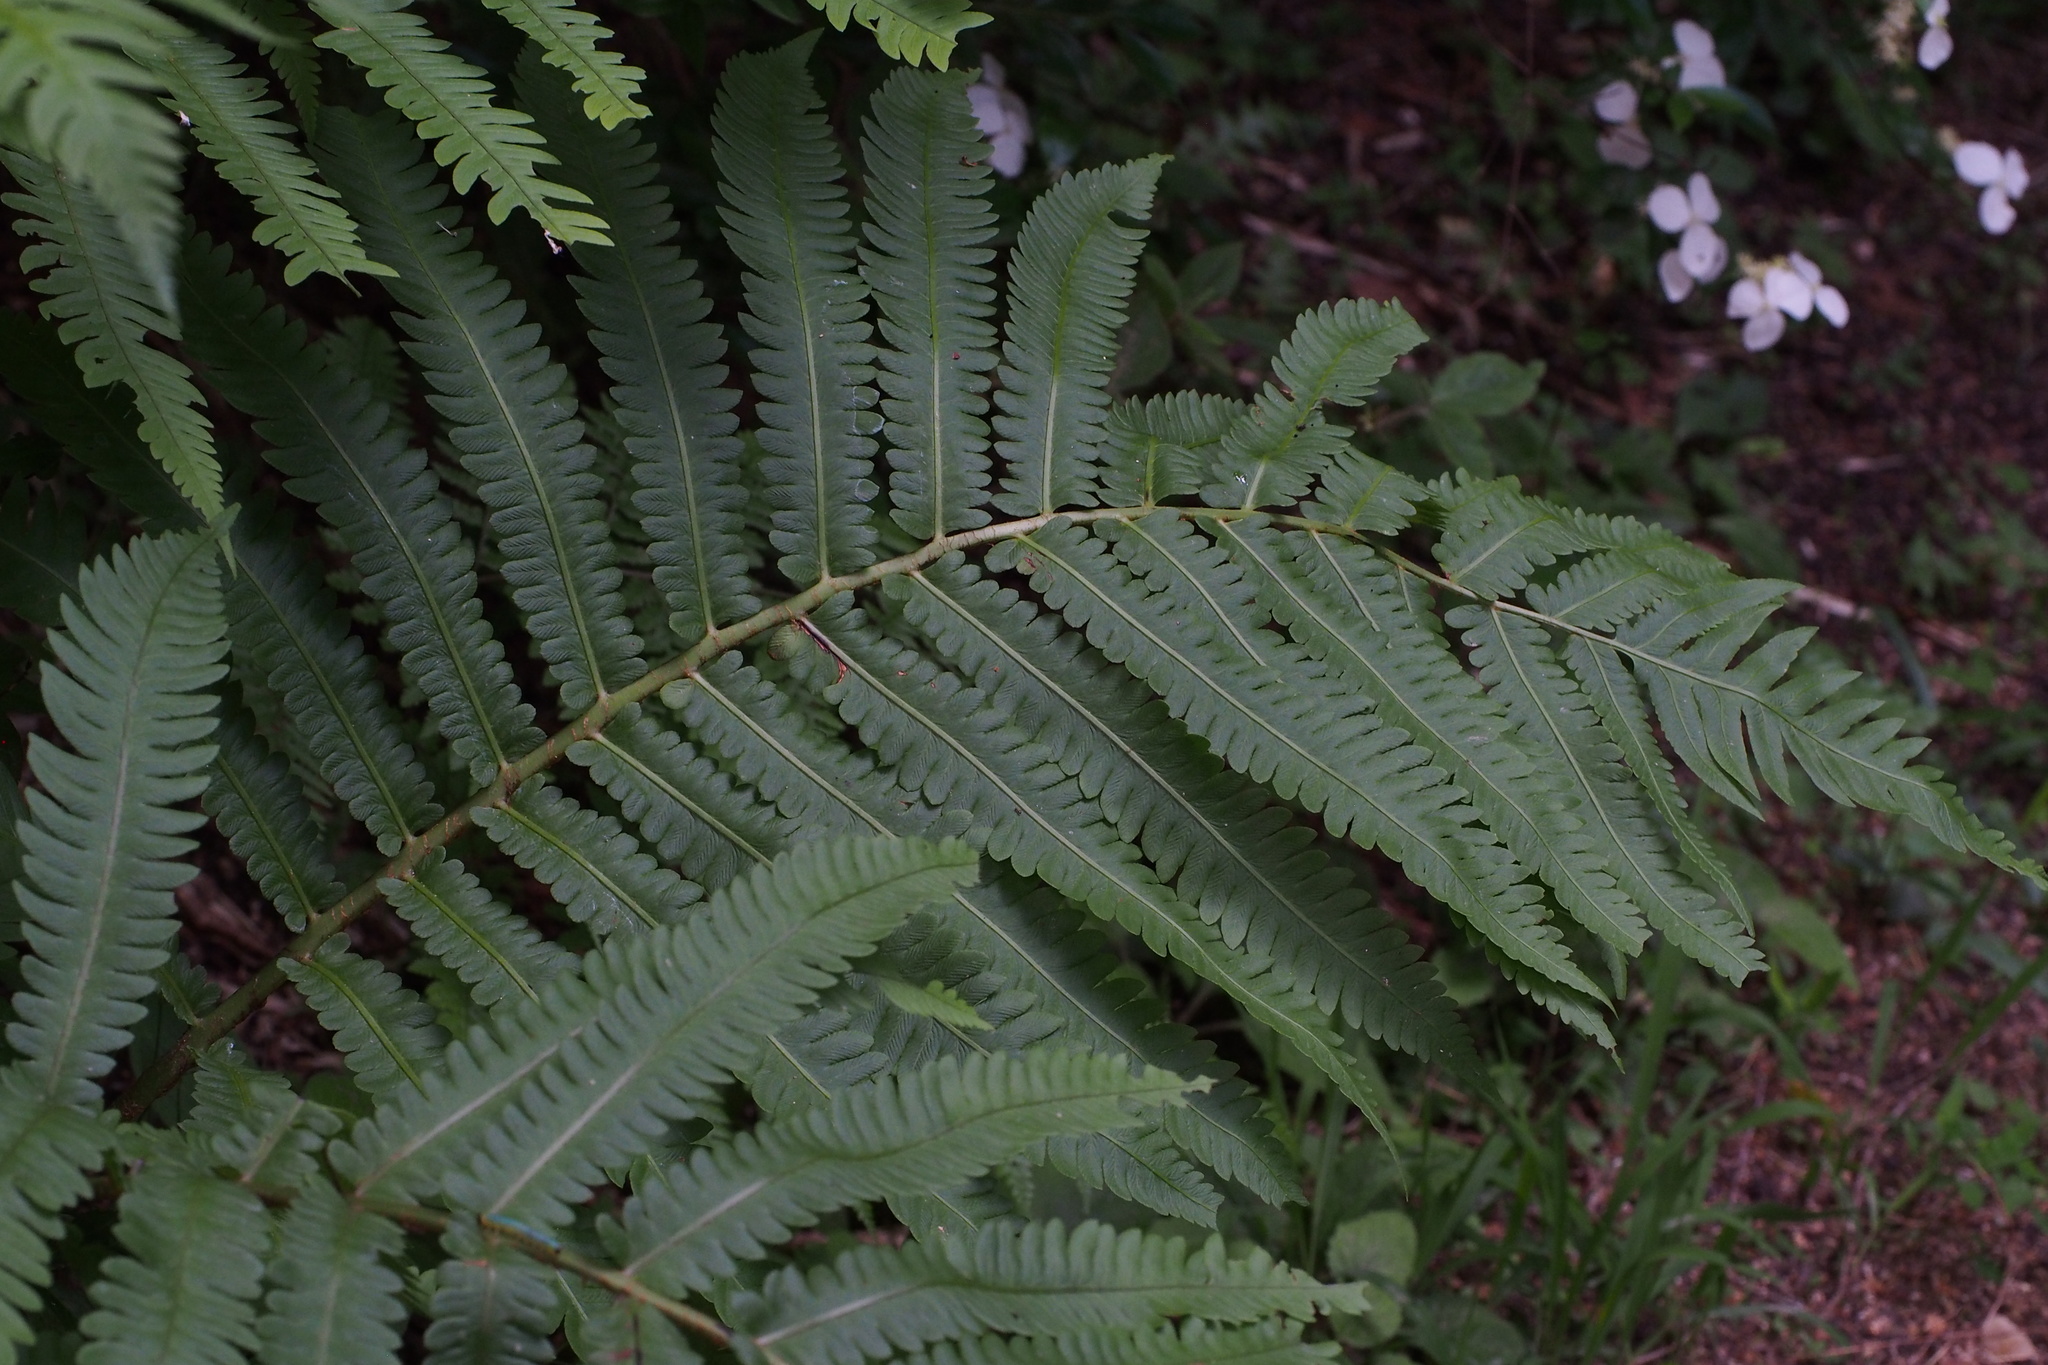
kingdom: Plantae
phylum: Tracheophyta
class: Polypodiopsida
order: Polypodiales
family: Onocleaceae
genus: Pentarhizidium
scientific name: Pentarhizidium orientale
